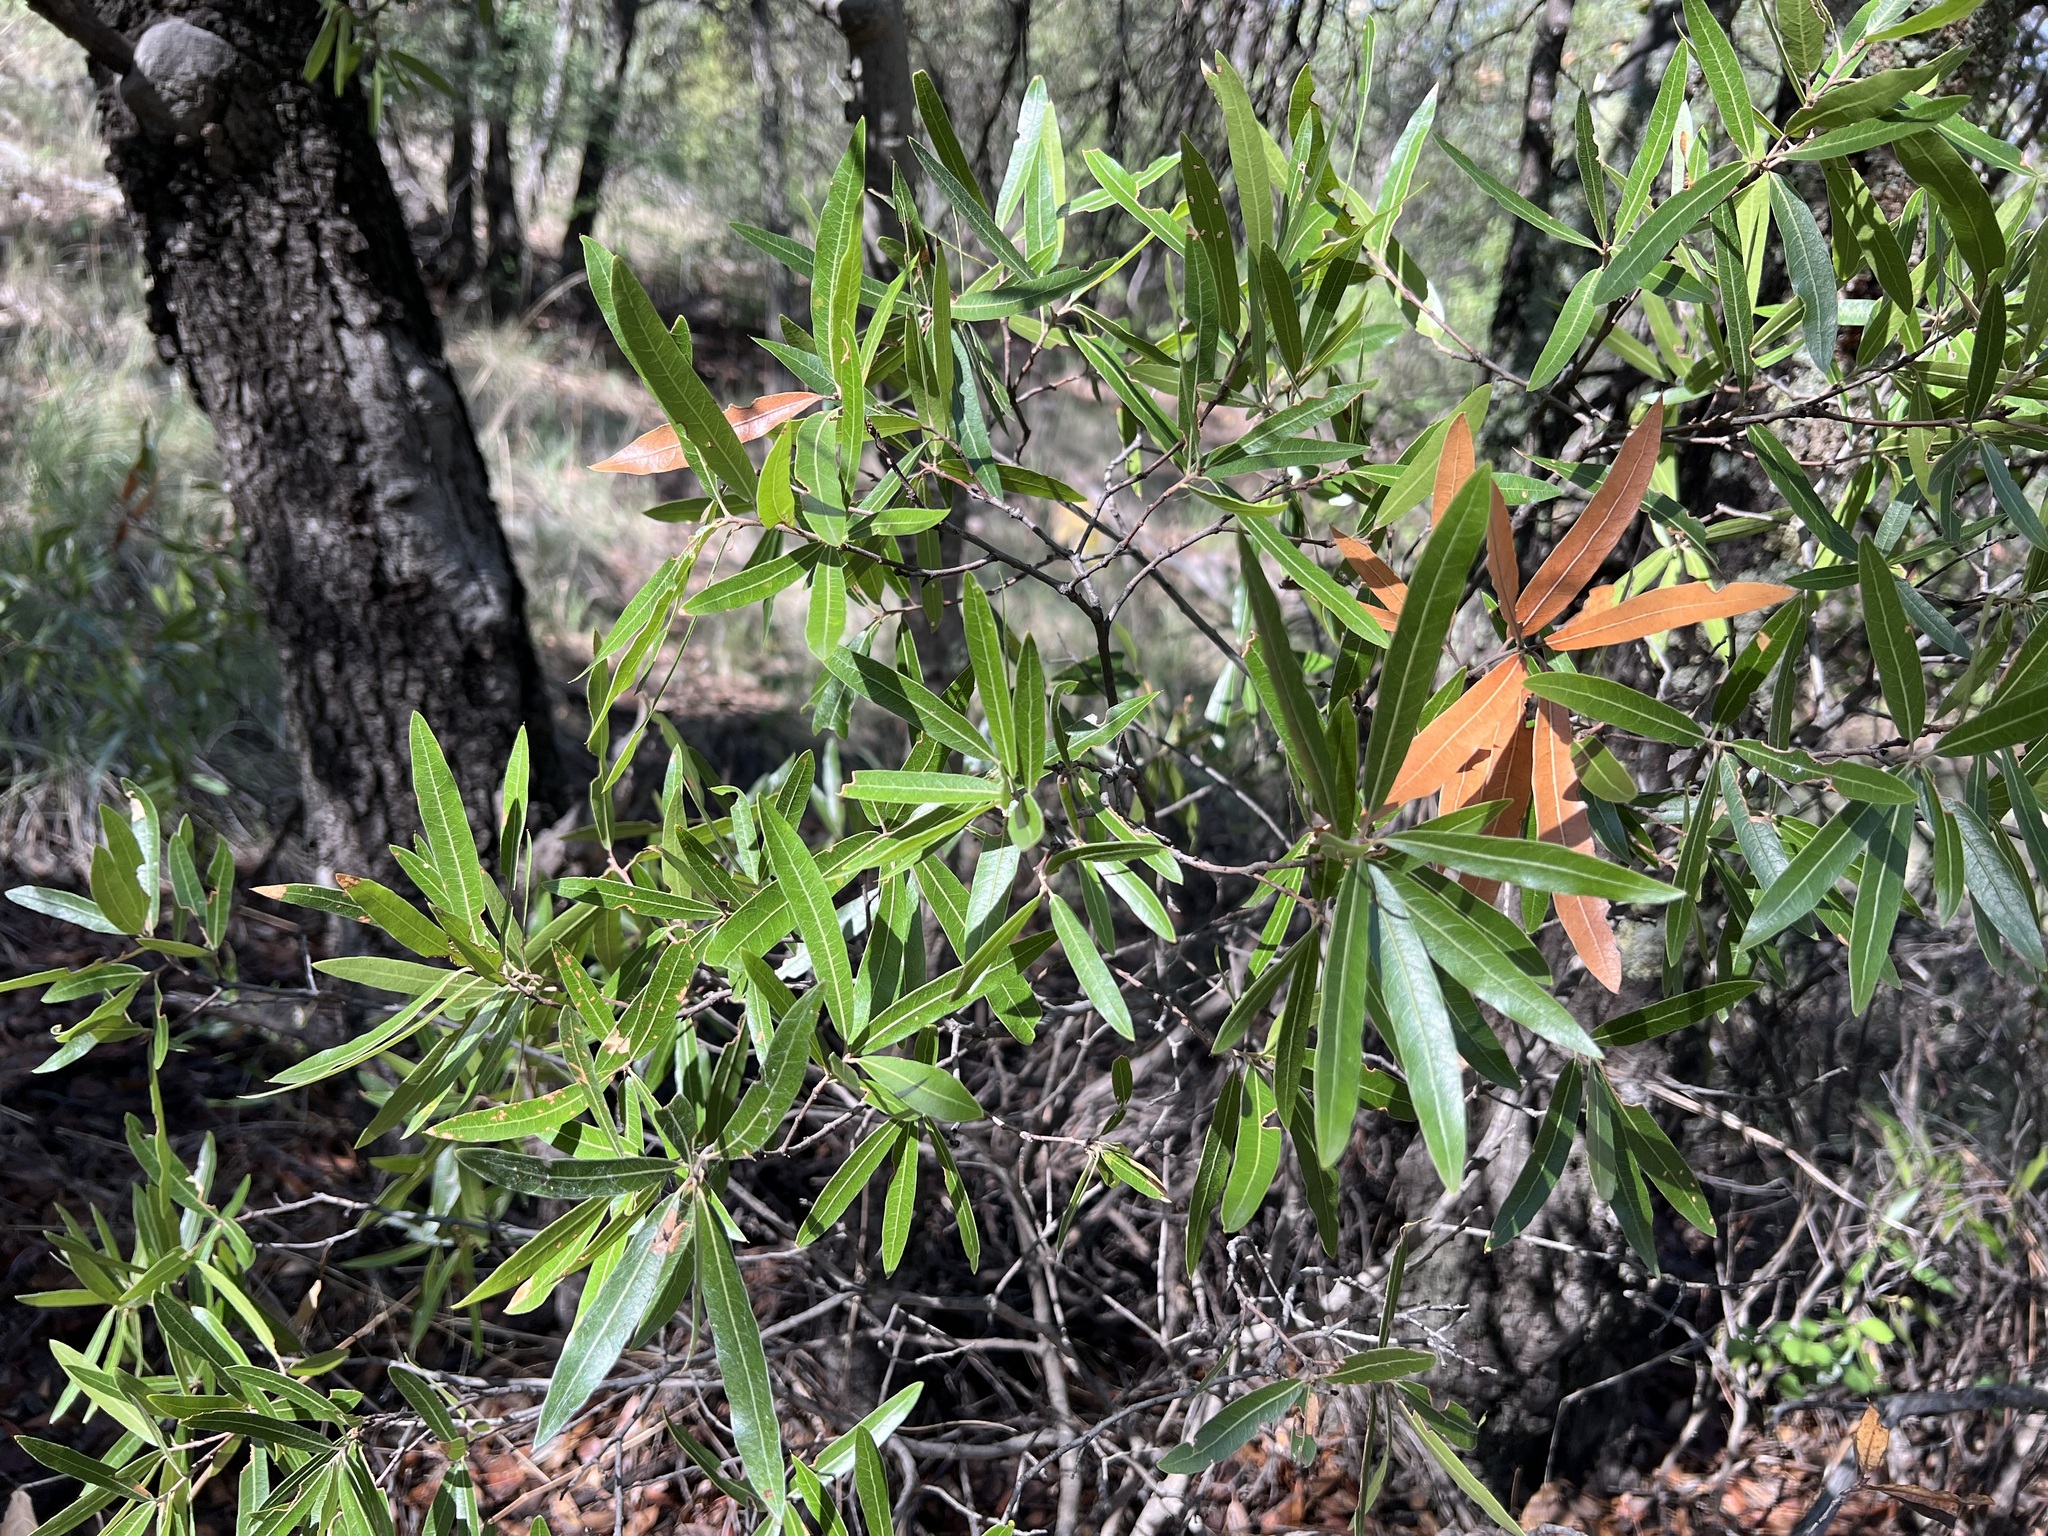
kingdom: Plantae
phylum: Tracheophyta
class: Magnoliopsida
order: Fagales
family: Fagaceae
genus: Quercus
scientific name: Quercus viminea
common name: Mexican willow oak
